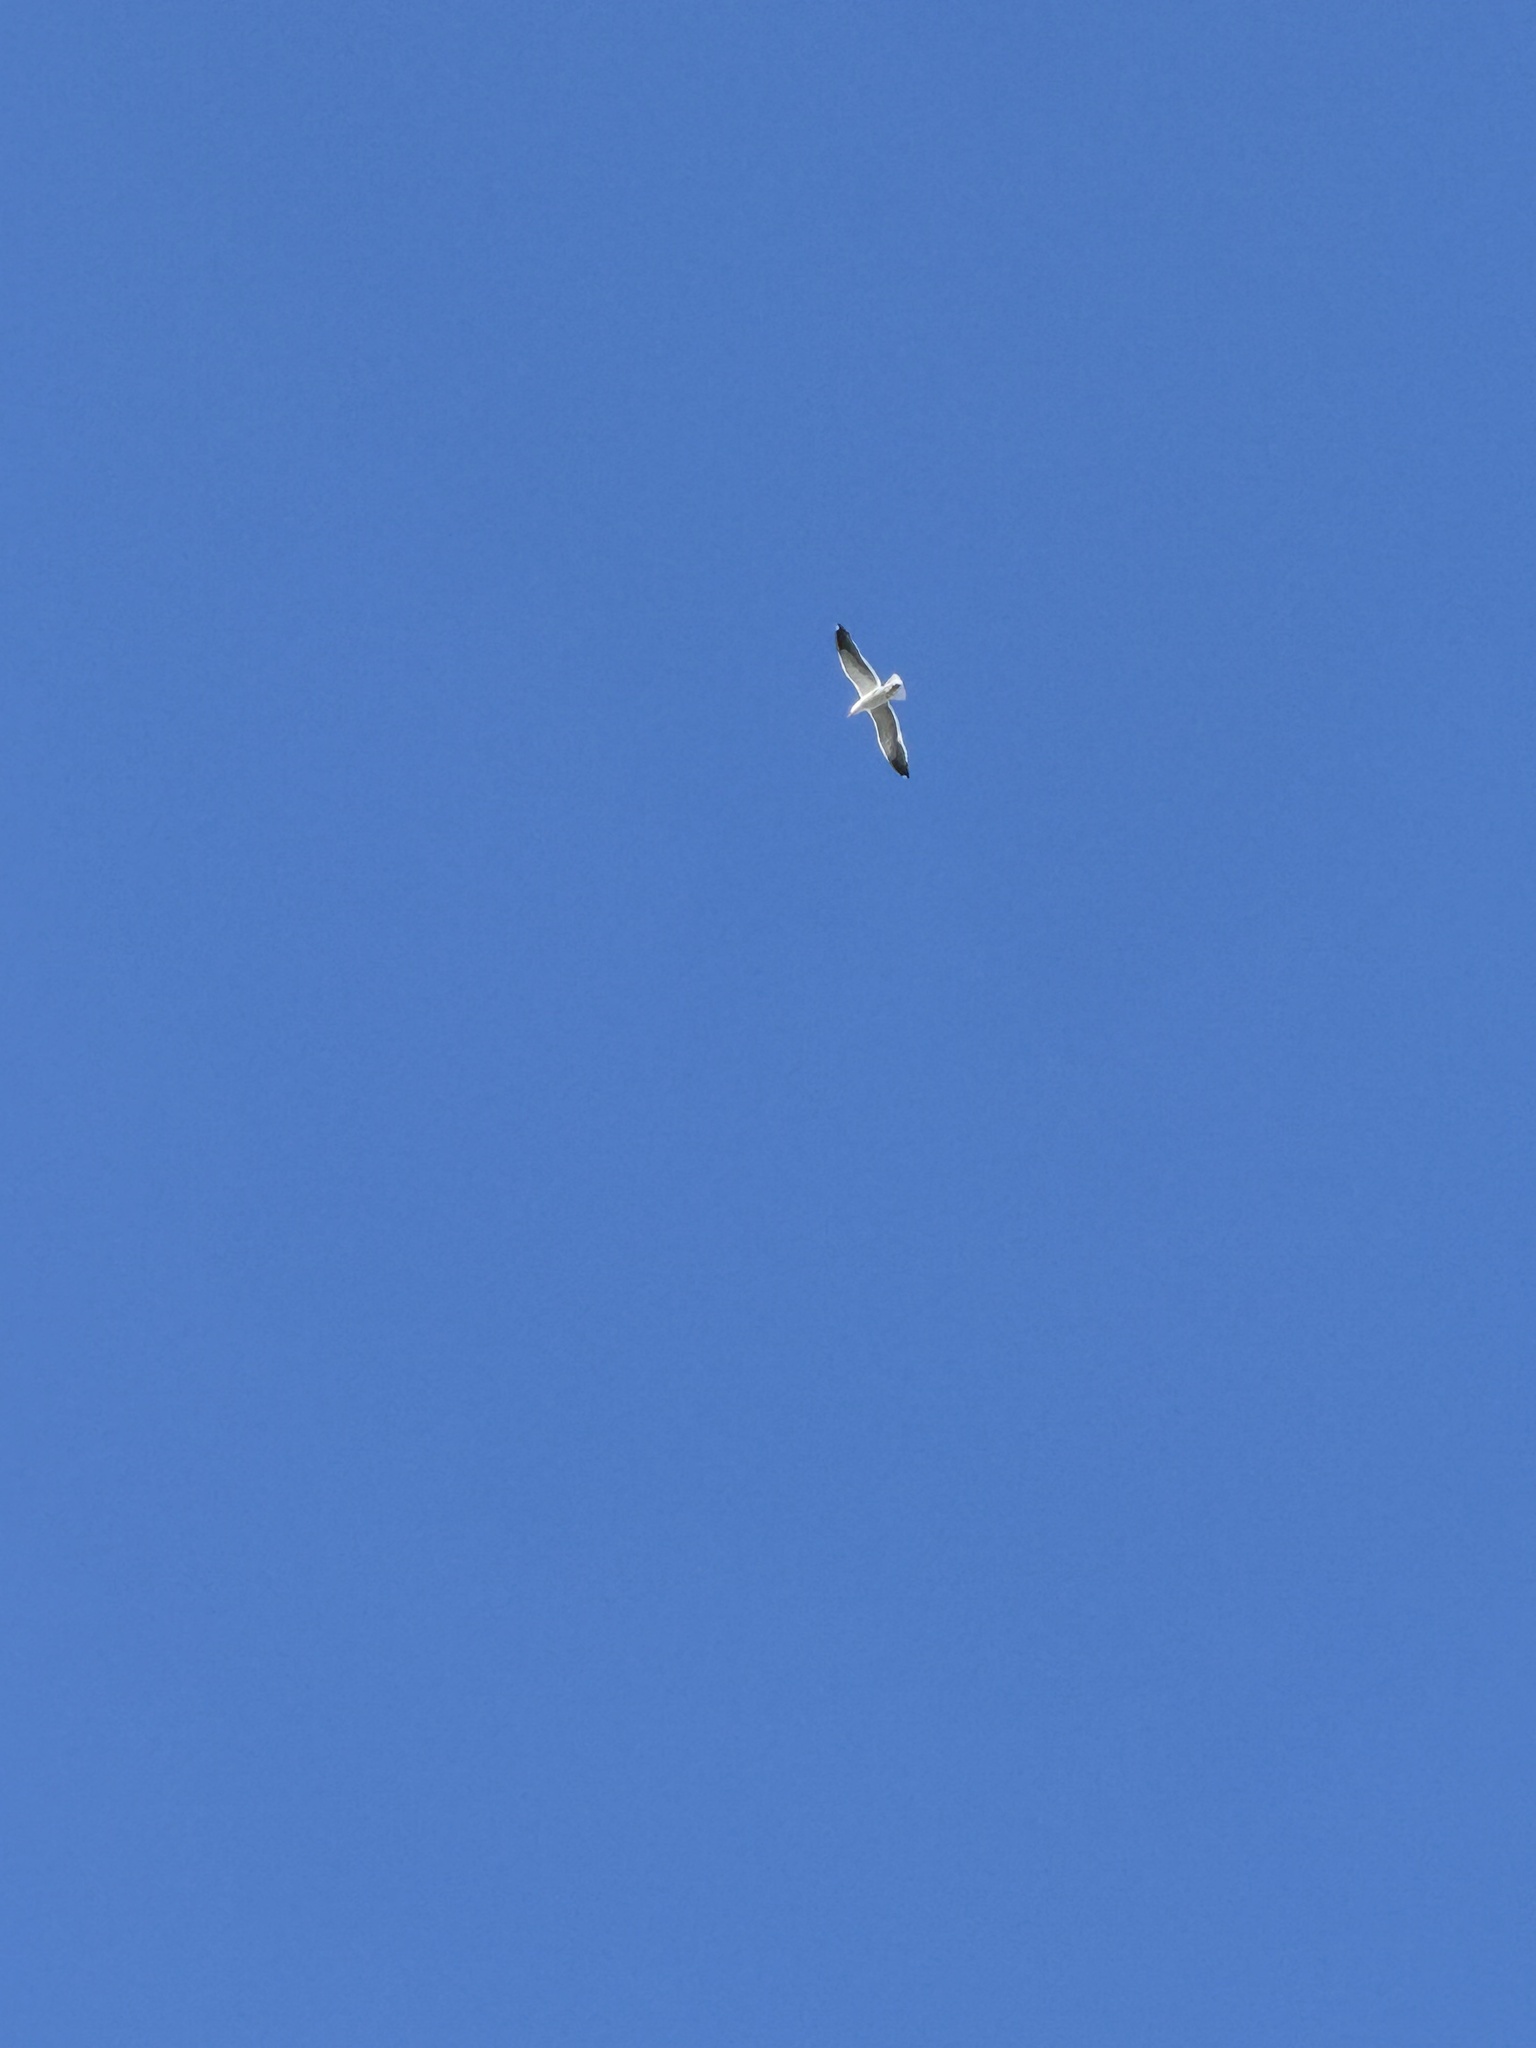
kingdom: Animalia
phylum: Chordata
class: Aves
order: Charadriiformes
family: Laridae
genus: Larus
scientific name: Larus occidentalis
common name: Western gull
